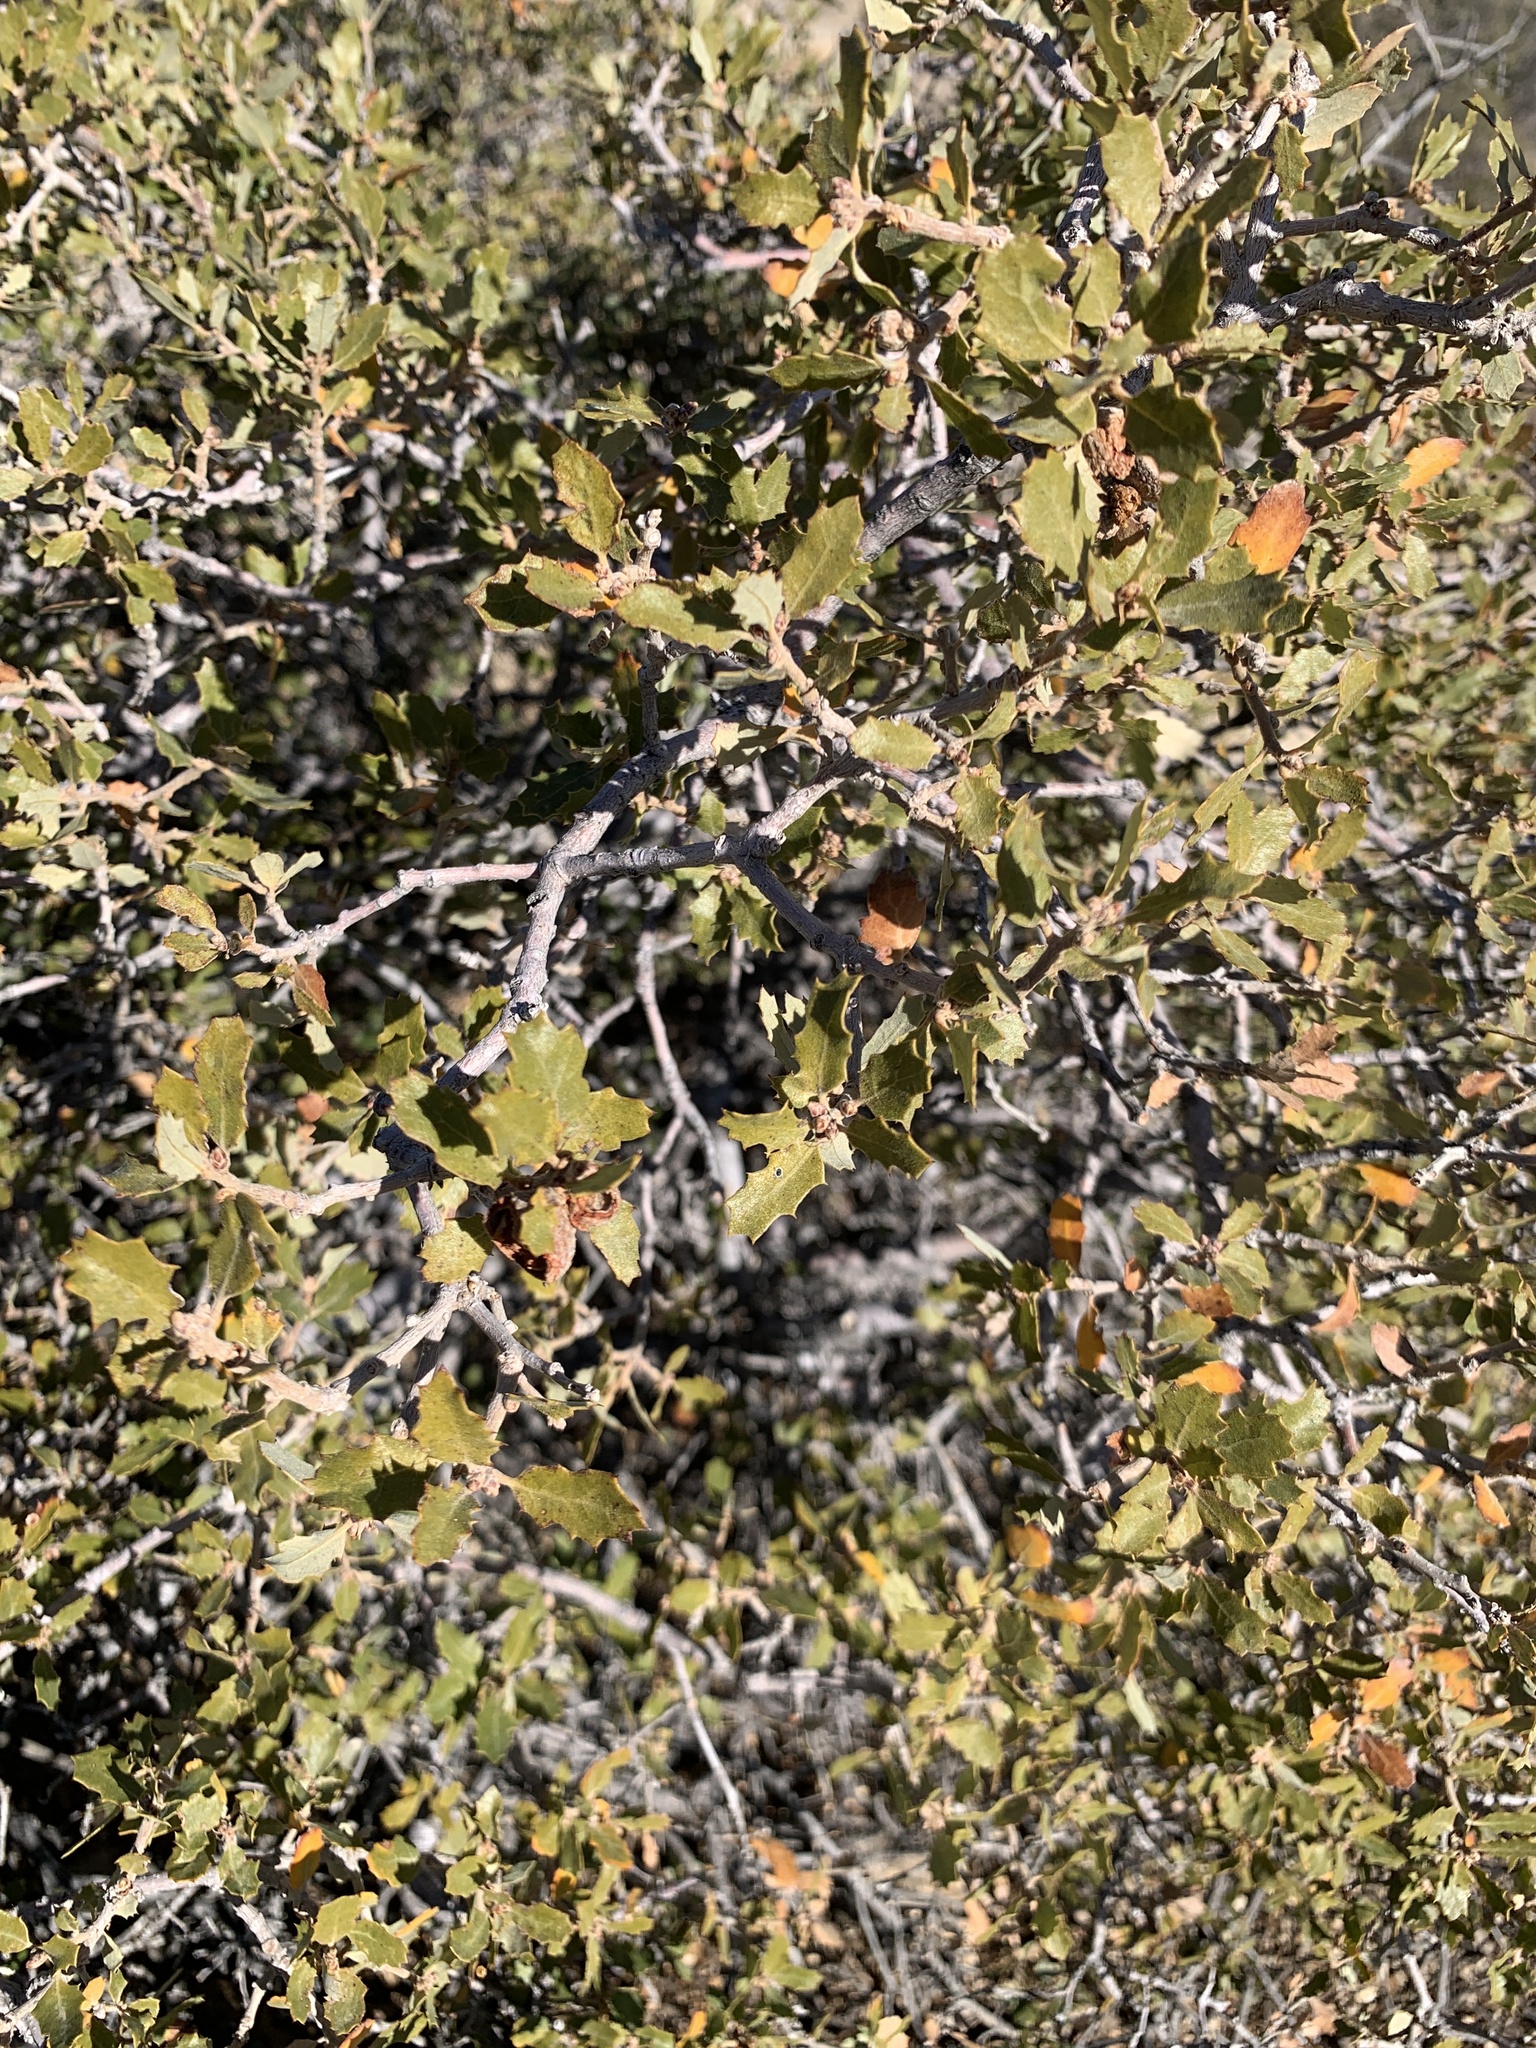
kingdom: Plantae
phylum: Tracheophyta
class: Magnoliopsida
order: Fagales
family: Fagaceae
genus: Quercus
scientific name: Quercus cornelius-mulleri
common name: Muller oak
